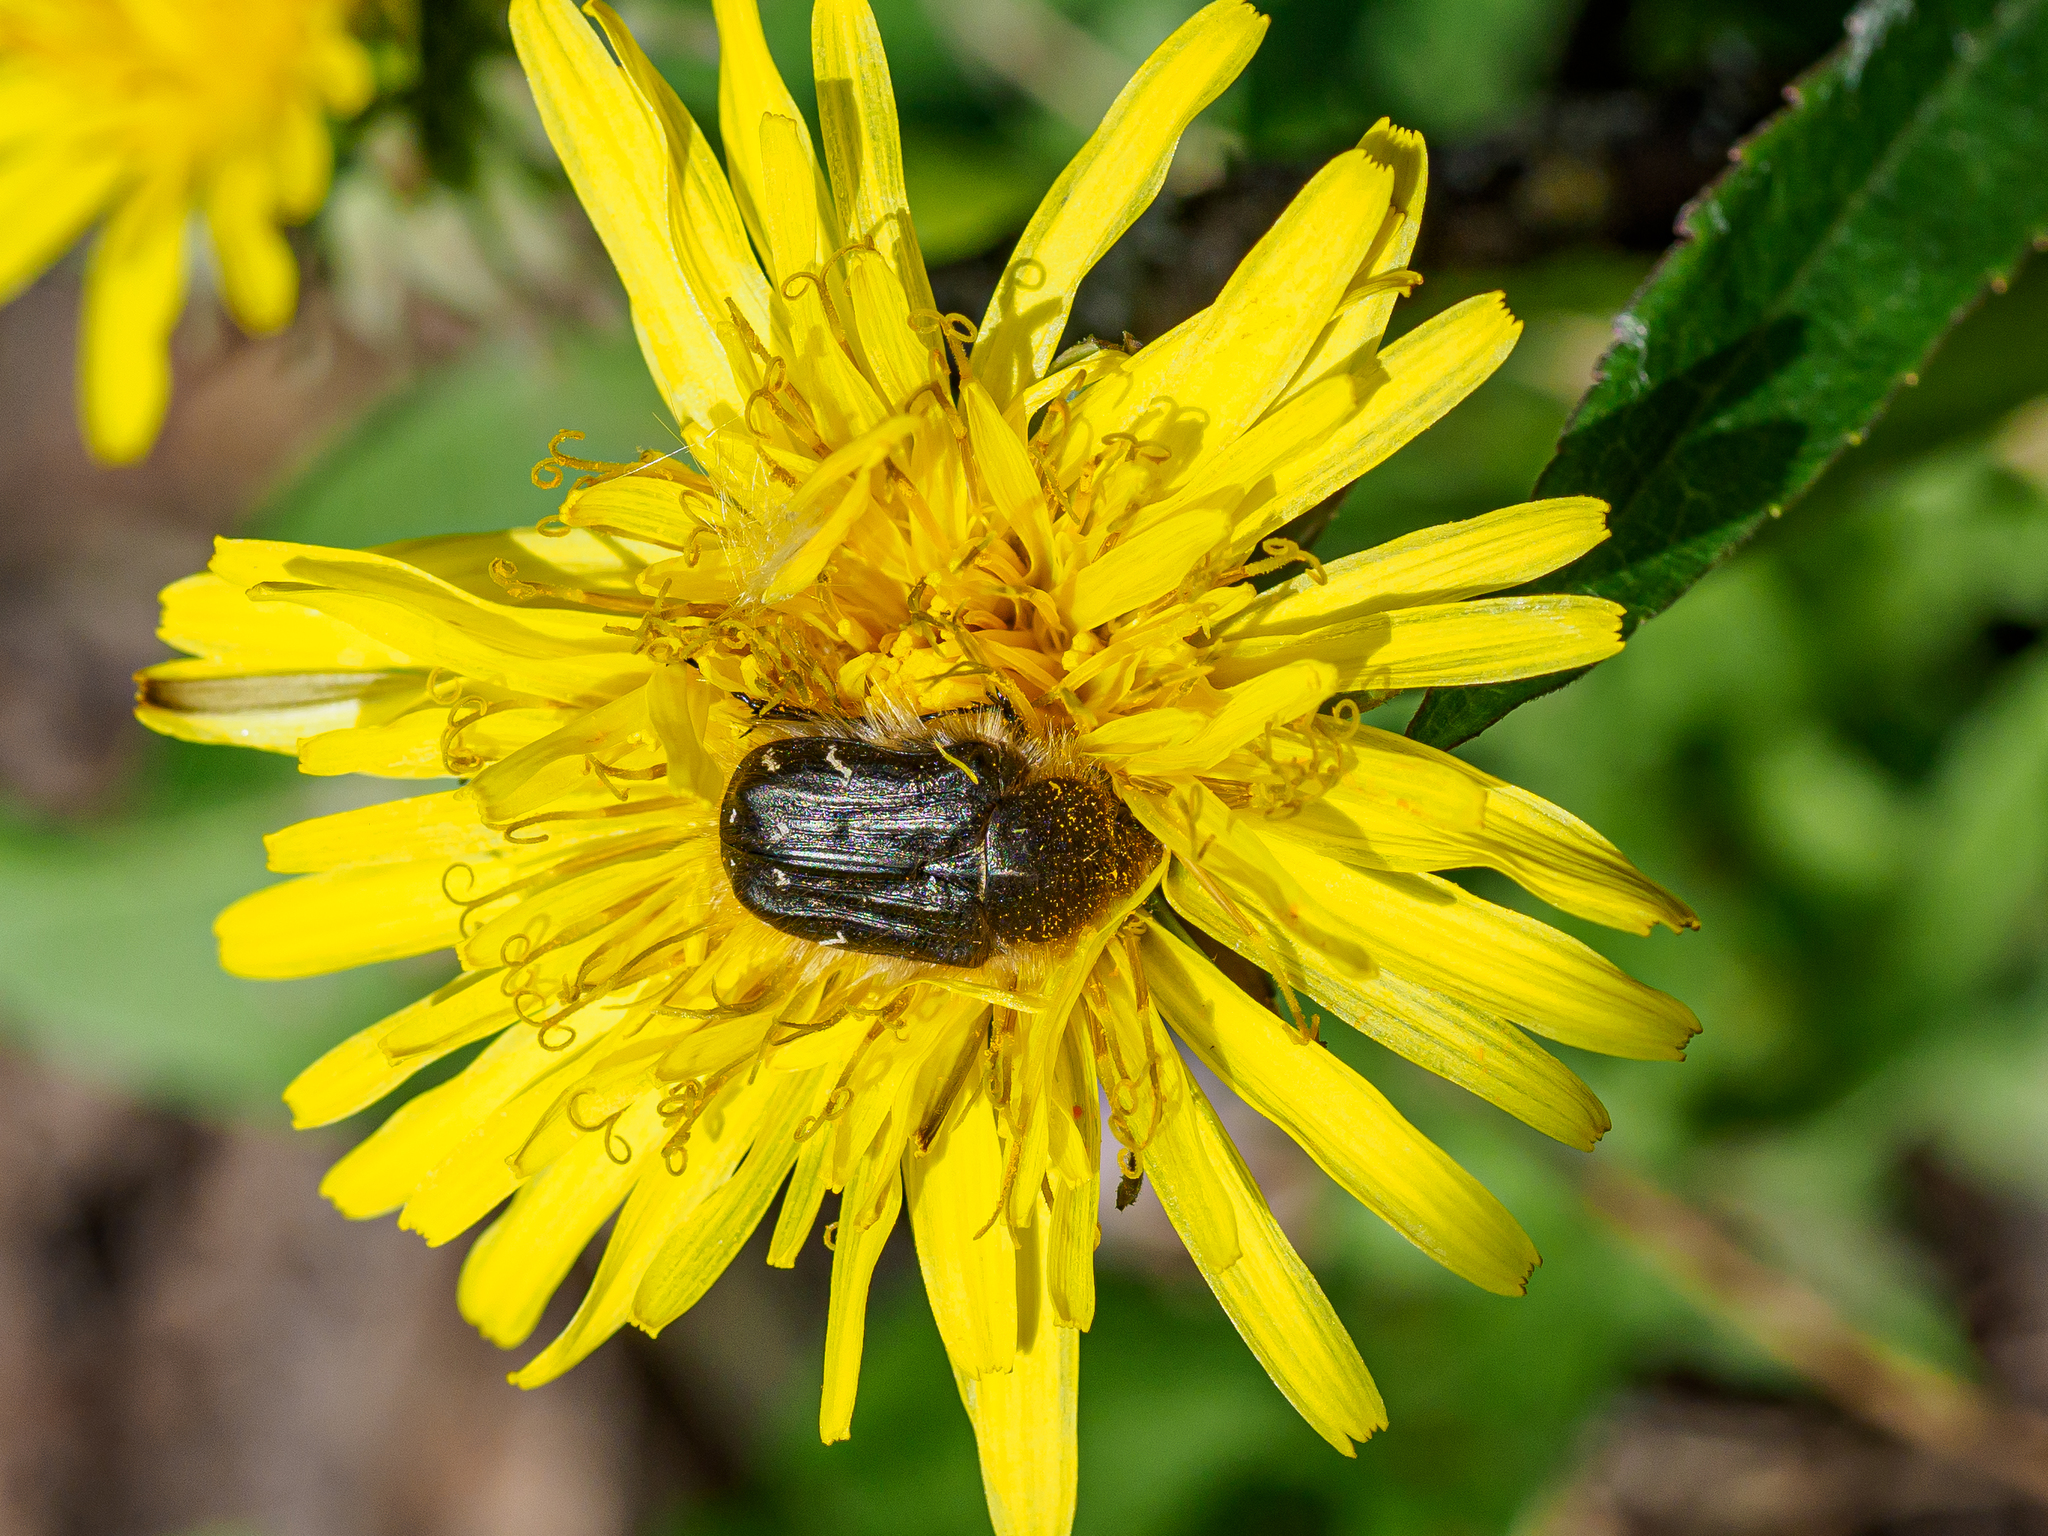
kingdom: Animalia
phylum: Arthropoda
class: Insecta
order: Coleoptera
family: Scarabaeidae
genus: Tropinota
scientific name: Tropinota hirta
